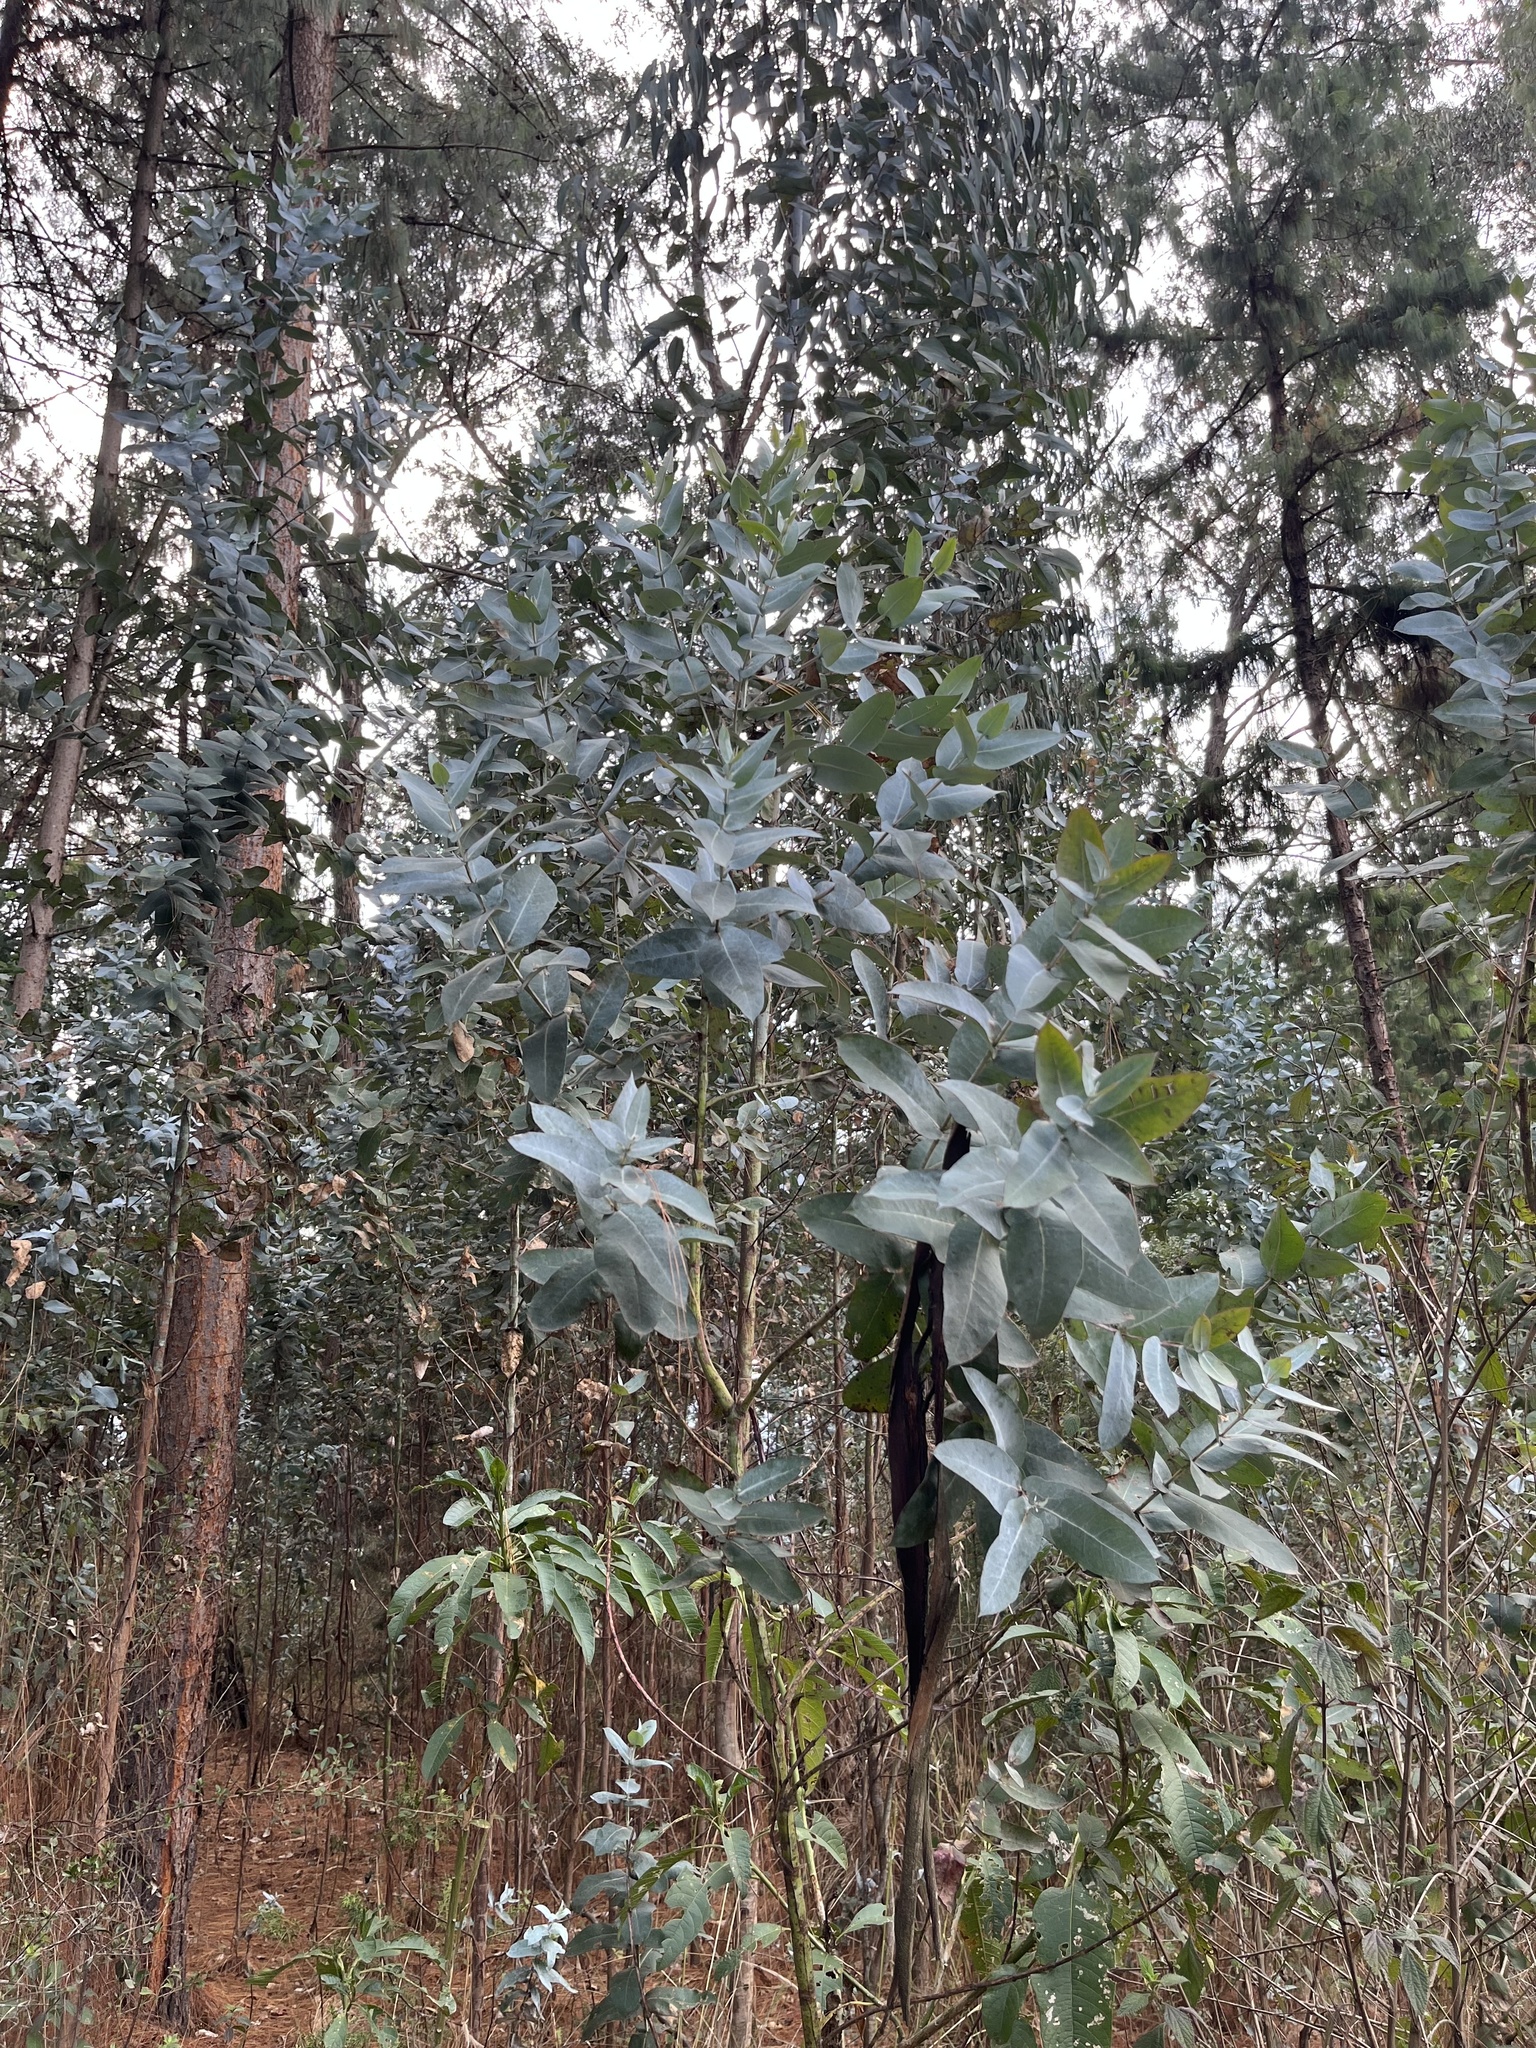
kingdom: Plantae
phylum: Tracheophyta
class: Magnoliopsida
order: Myrtales
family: Myrtaceae
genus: Eucalyptus
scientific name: Eucalyptus globulus
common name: Southern blue-gum
